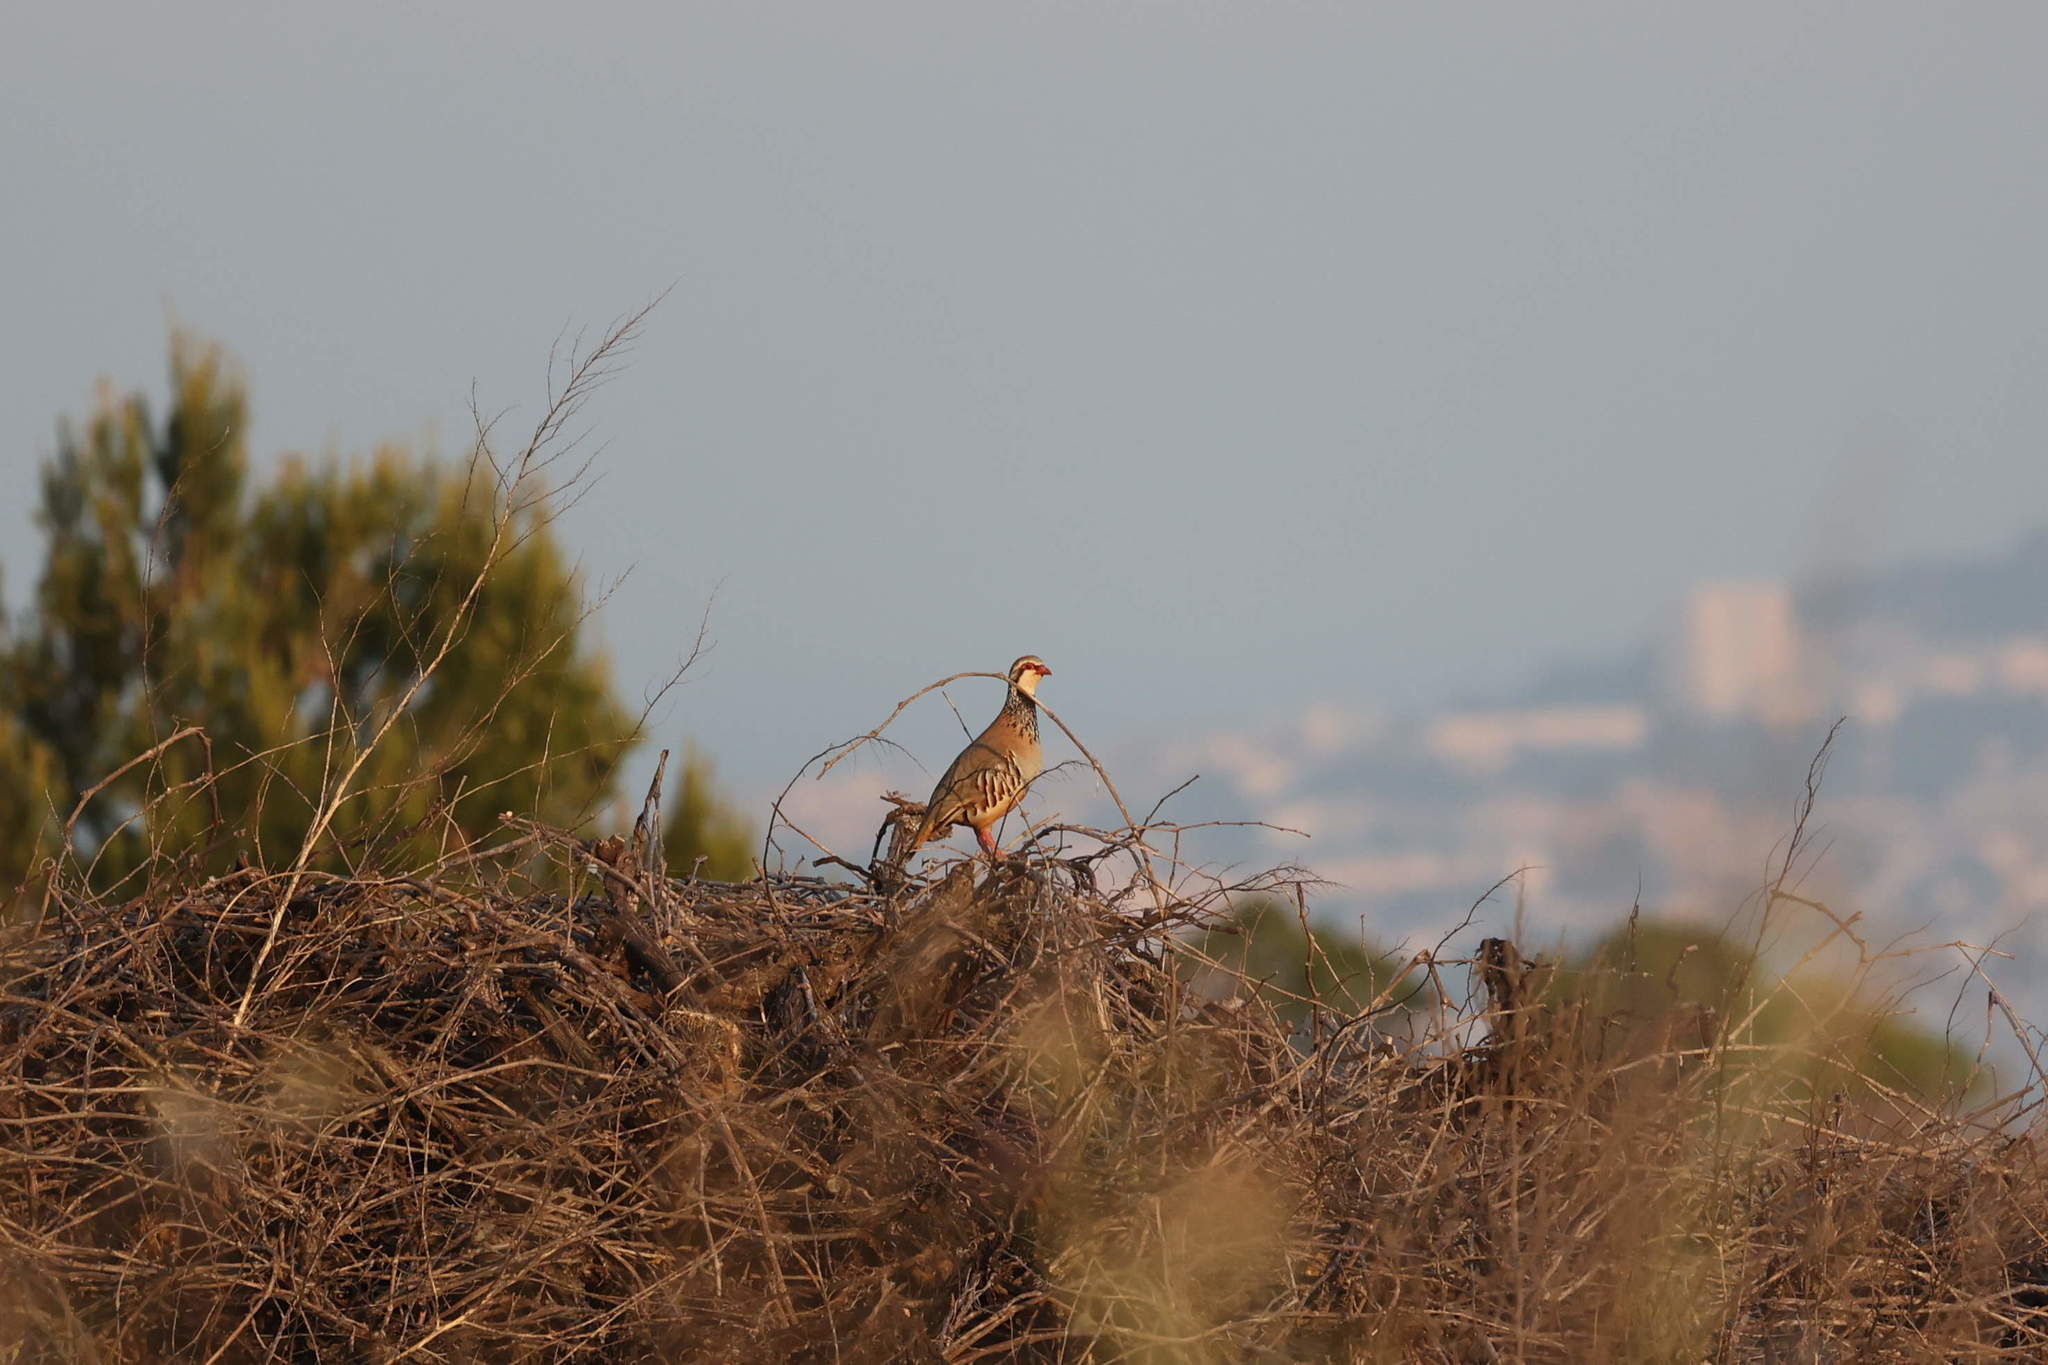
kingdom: Animalia
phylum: Chordata
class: Aves
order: Galliformes
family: Phasianidae
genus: Alectoris
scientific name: Alectoris rufa
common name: Red-legged partridge
